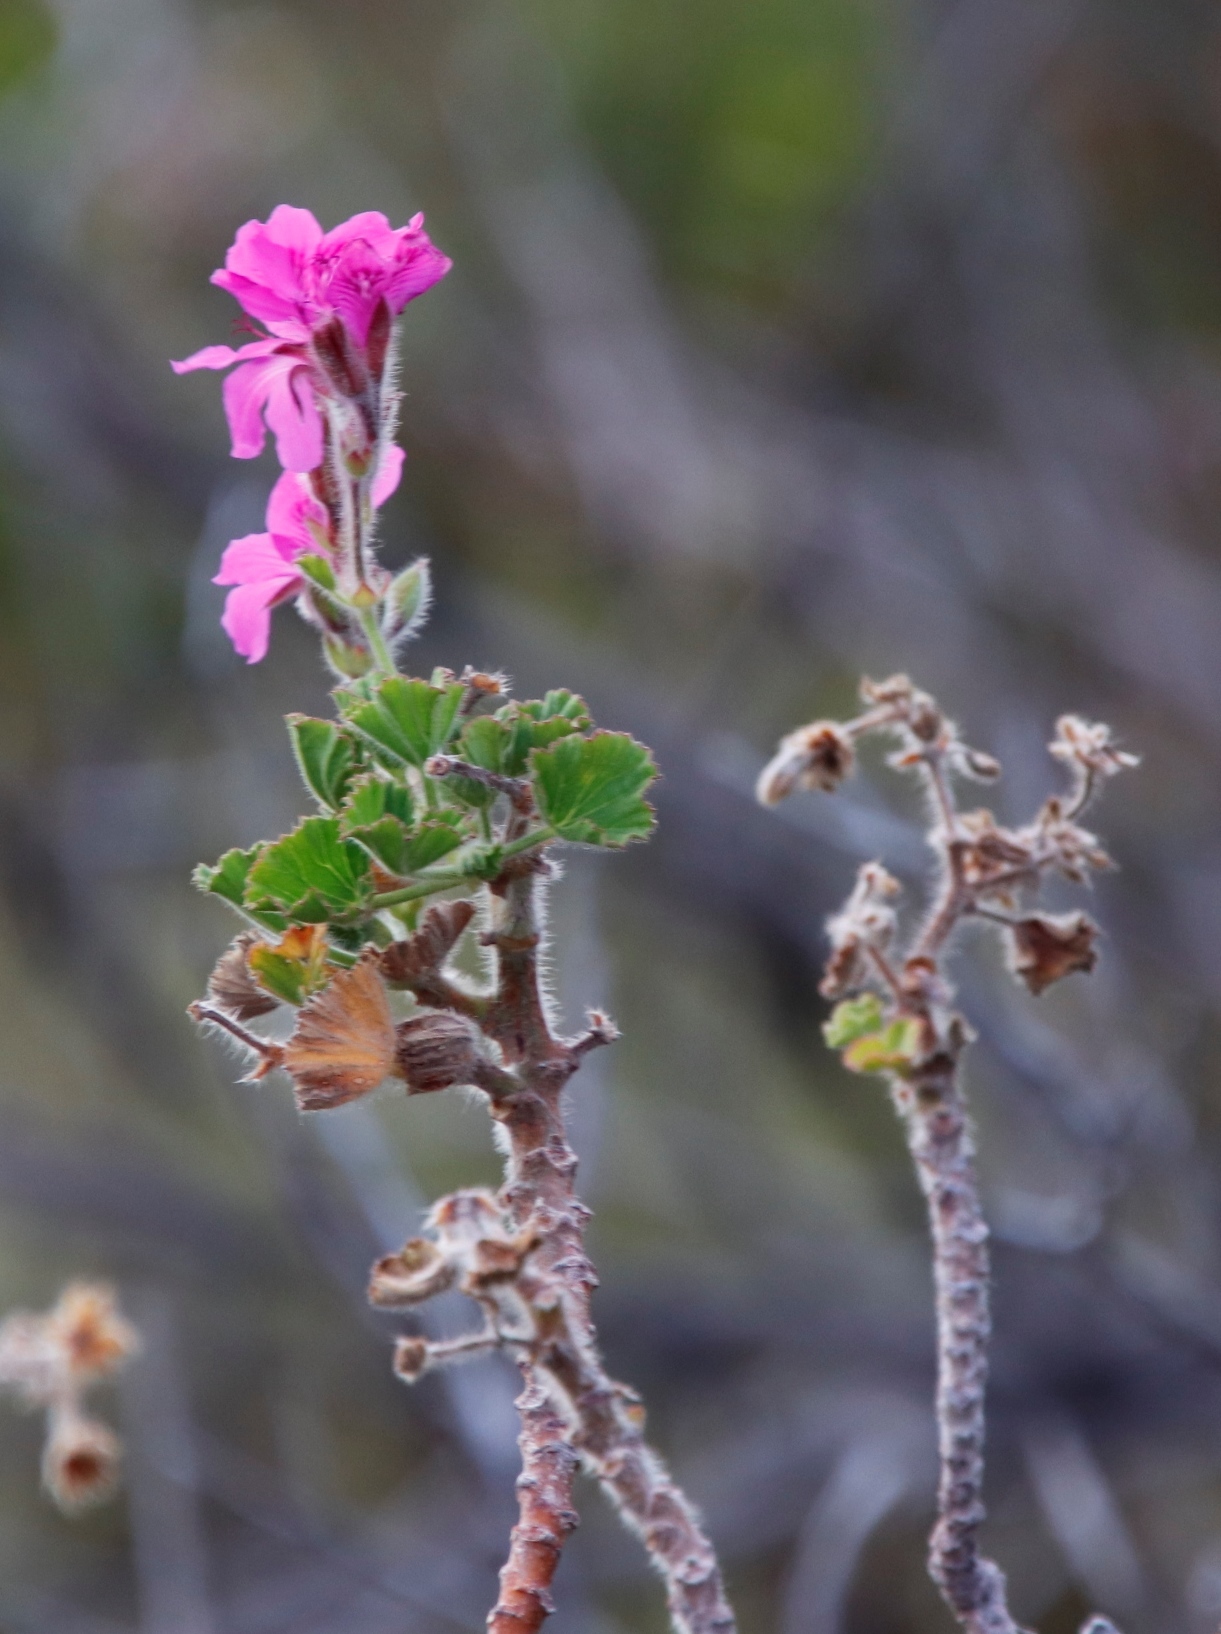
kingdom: Plantae
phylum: Tracheophyta
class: Magnoliopsida
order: Geraniales
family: Geraniaceae
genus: Pelargonium
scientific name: Pelargonium cucullatum
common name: Tree pelargonium
